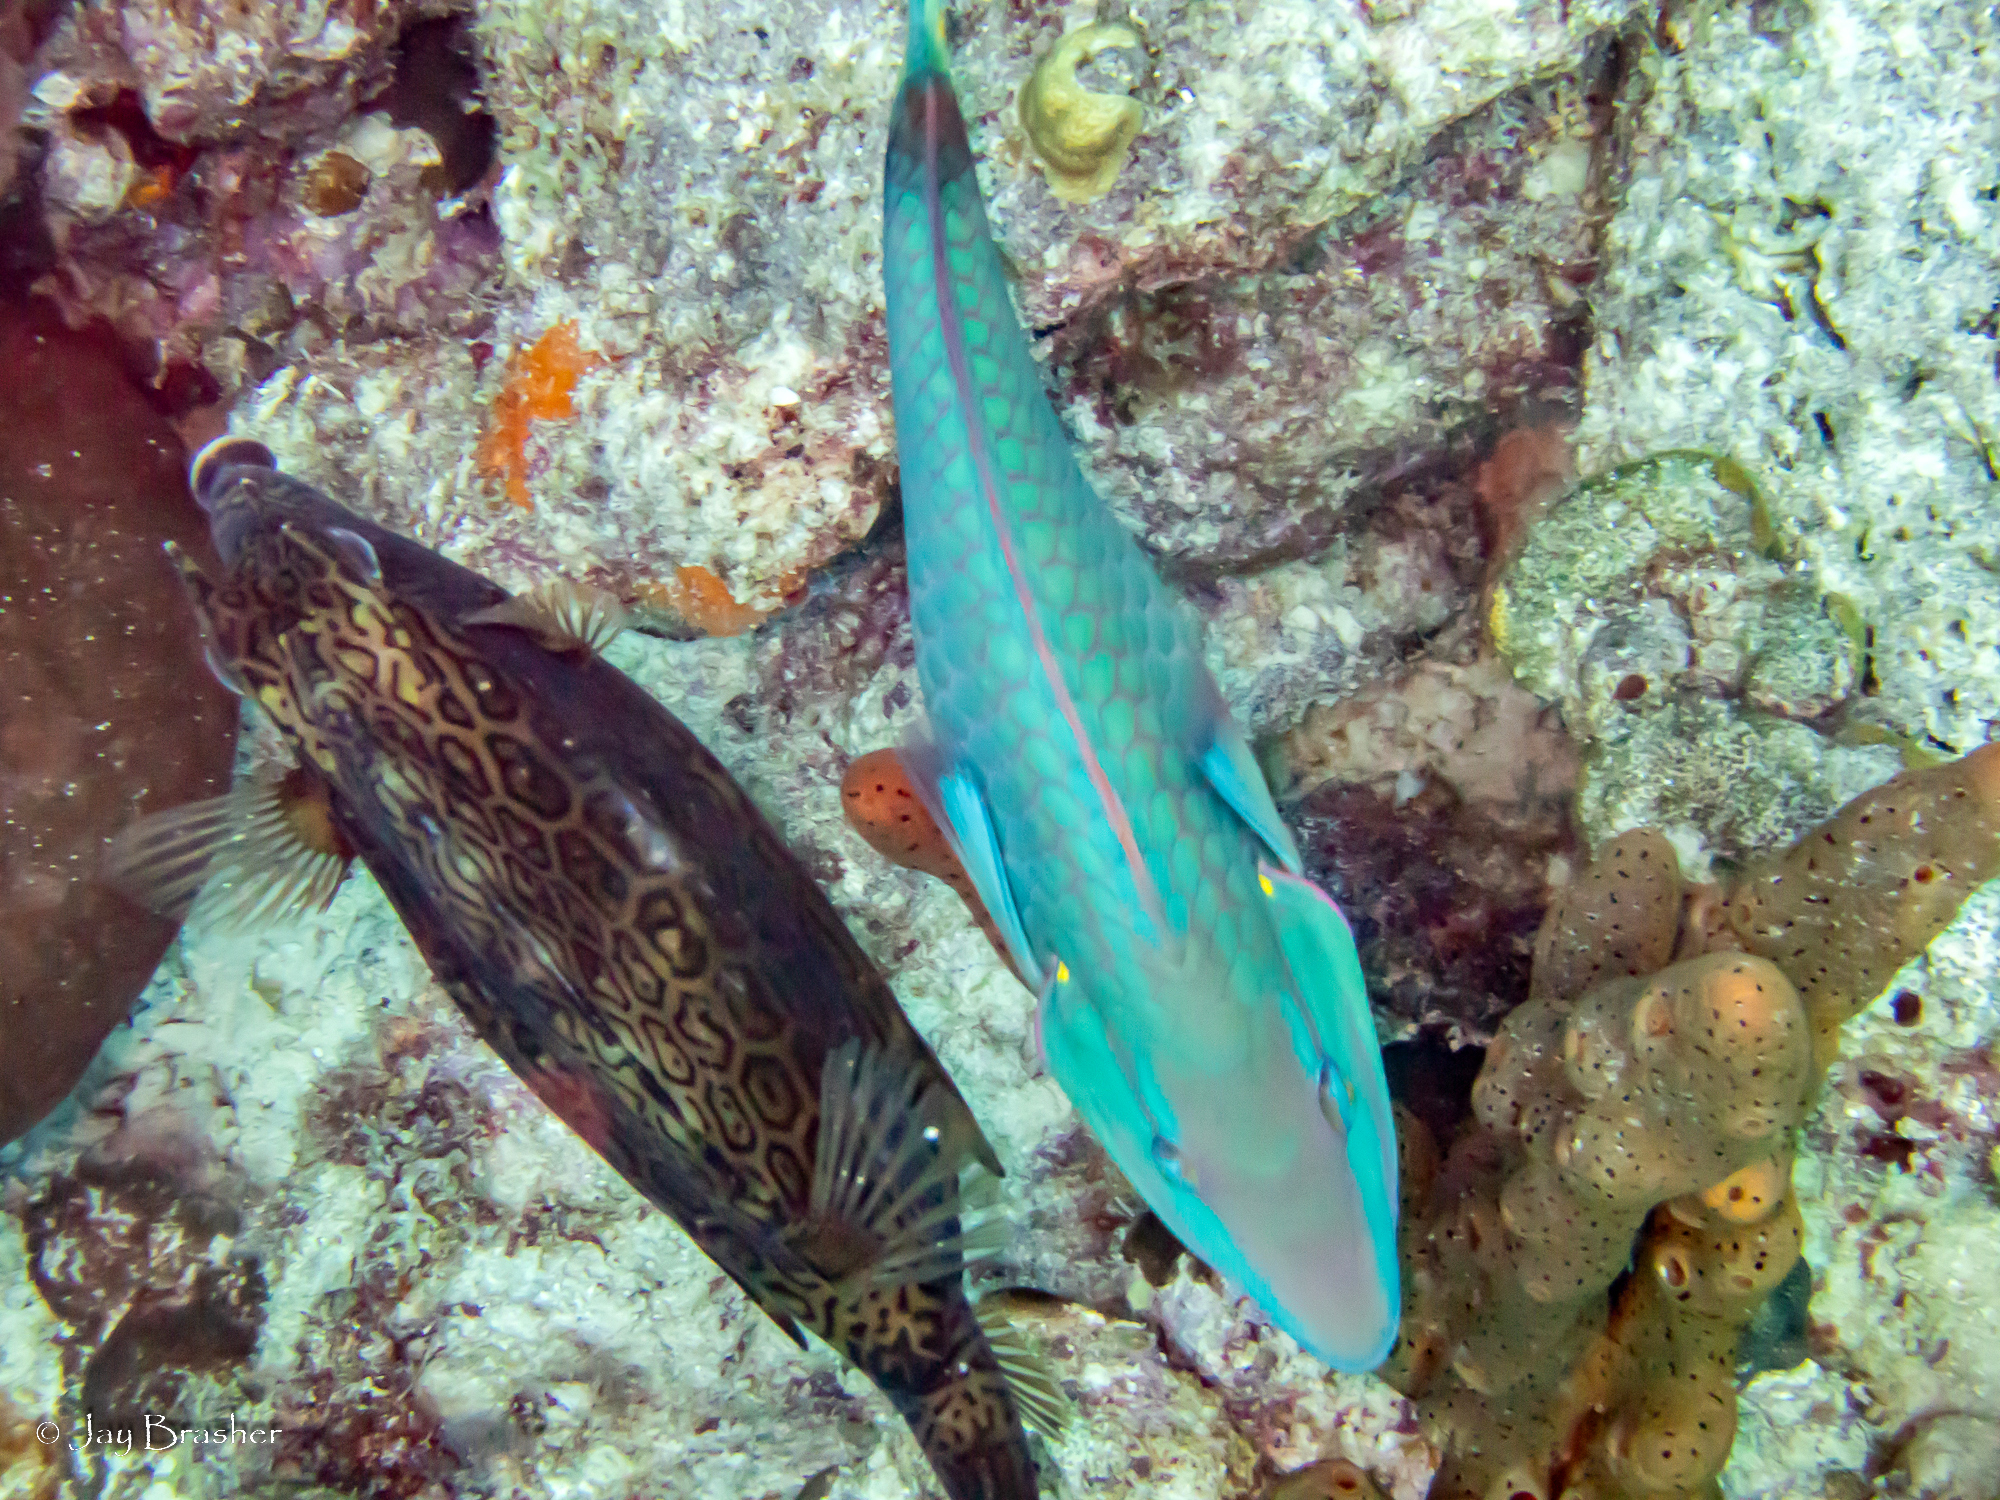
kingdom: Animalia
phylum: Porifera
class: Demospongiae
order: Agelasida
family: Agelasidae
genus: Agelas
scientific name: Agelas conifera
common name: Brown tube sponge
